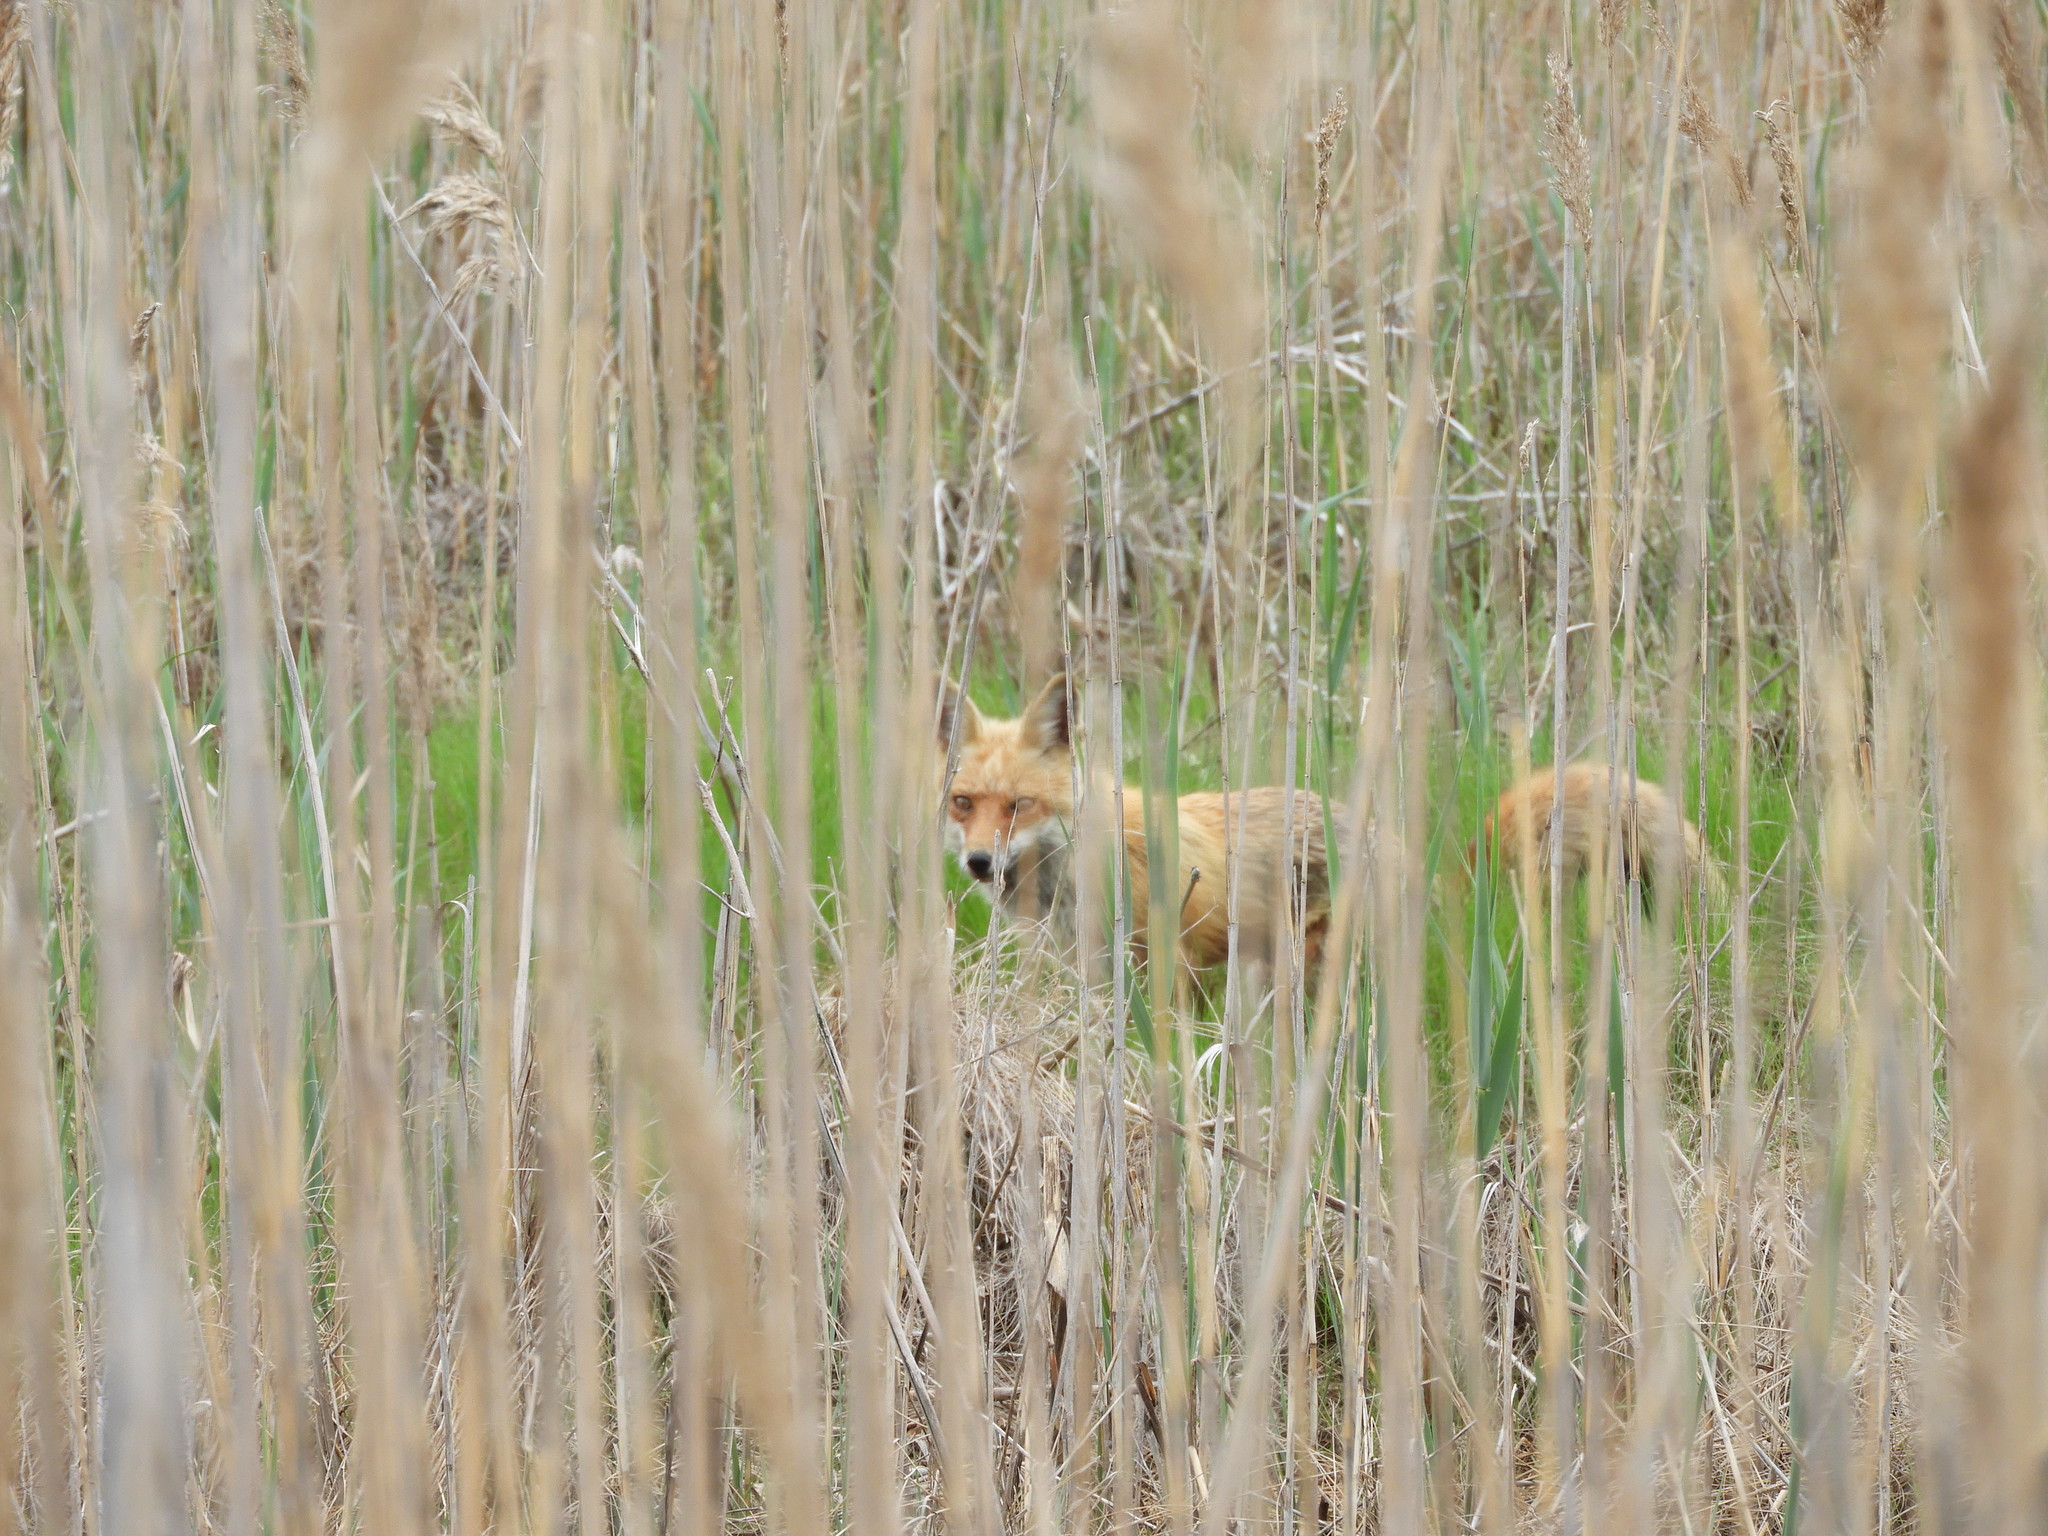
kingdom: Animalia
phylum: Chordata
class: Mammalia
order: Carnivora
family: Canidae
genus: Vulpes
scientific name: Vulpes vulpes
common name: Red fox
